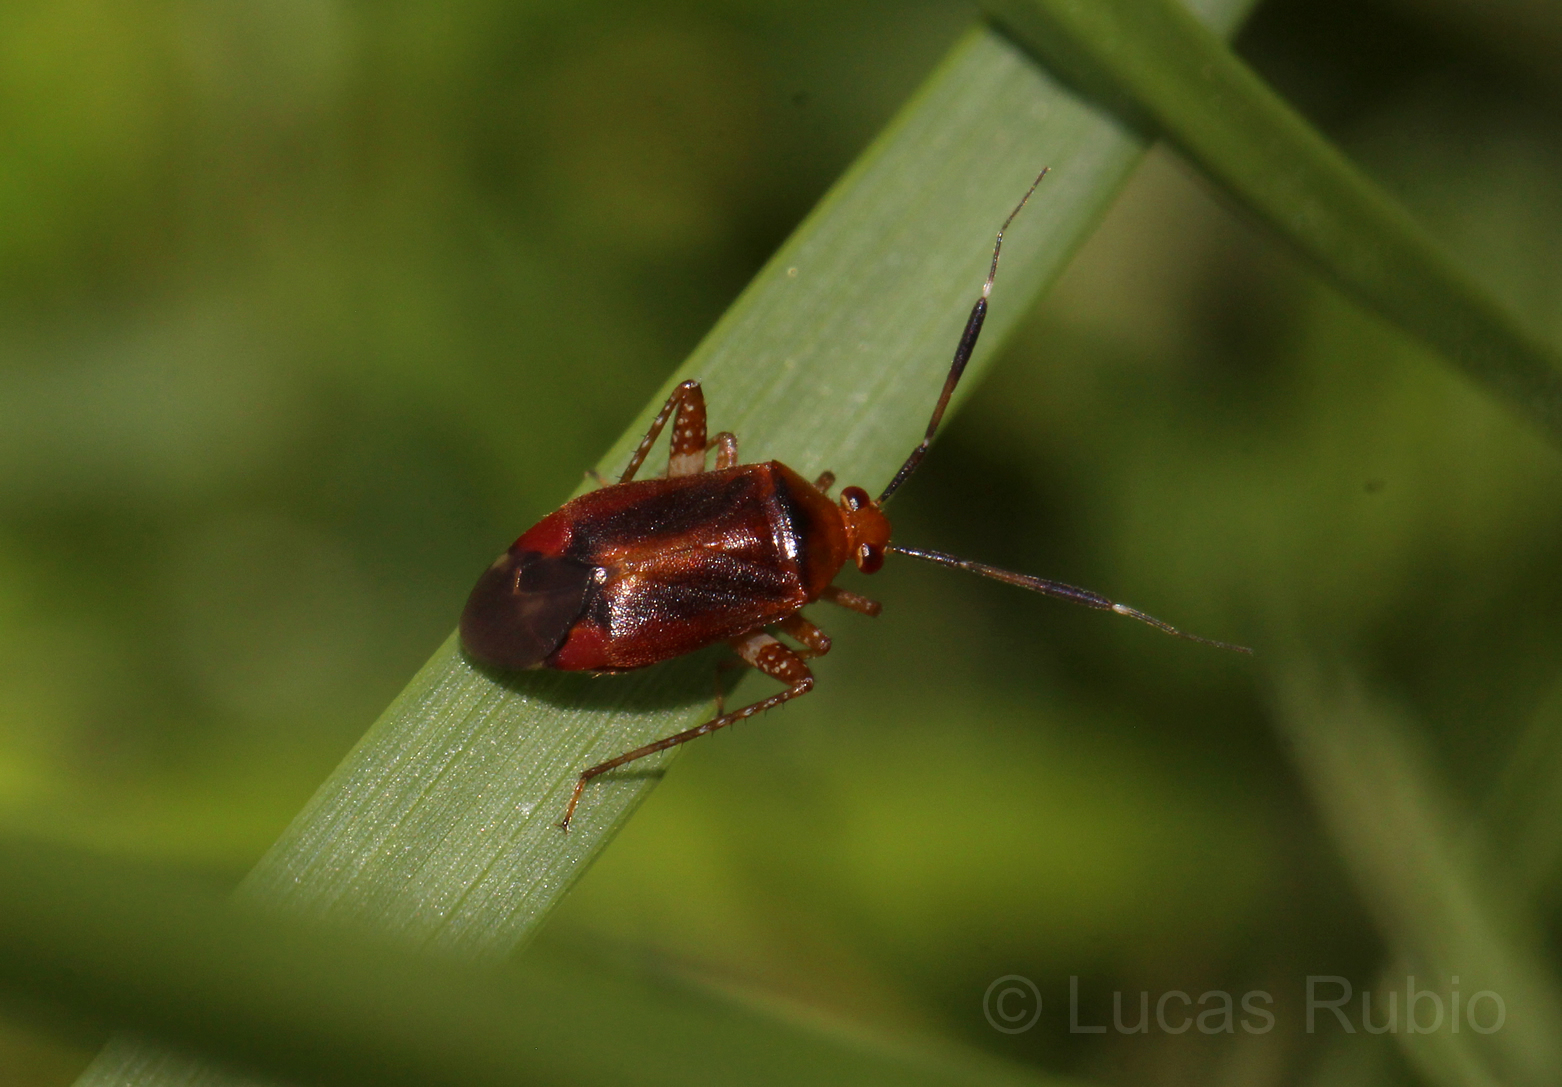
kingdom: Animalia
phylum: Arthropoda
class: Insecta
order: Hemiptera
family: Miridae
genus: Horciasinus
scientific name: Horciasinus argentinus
